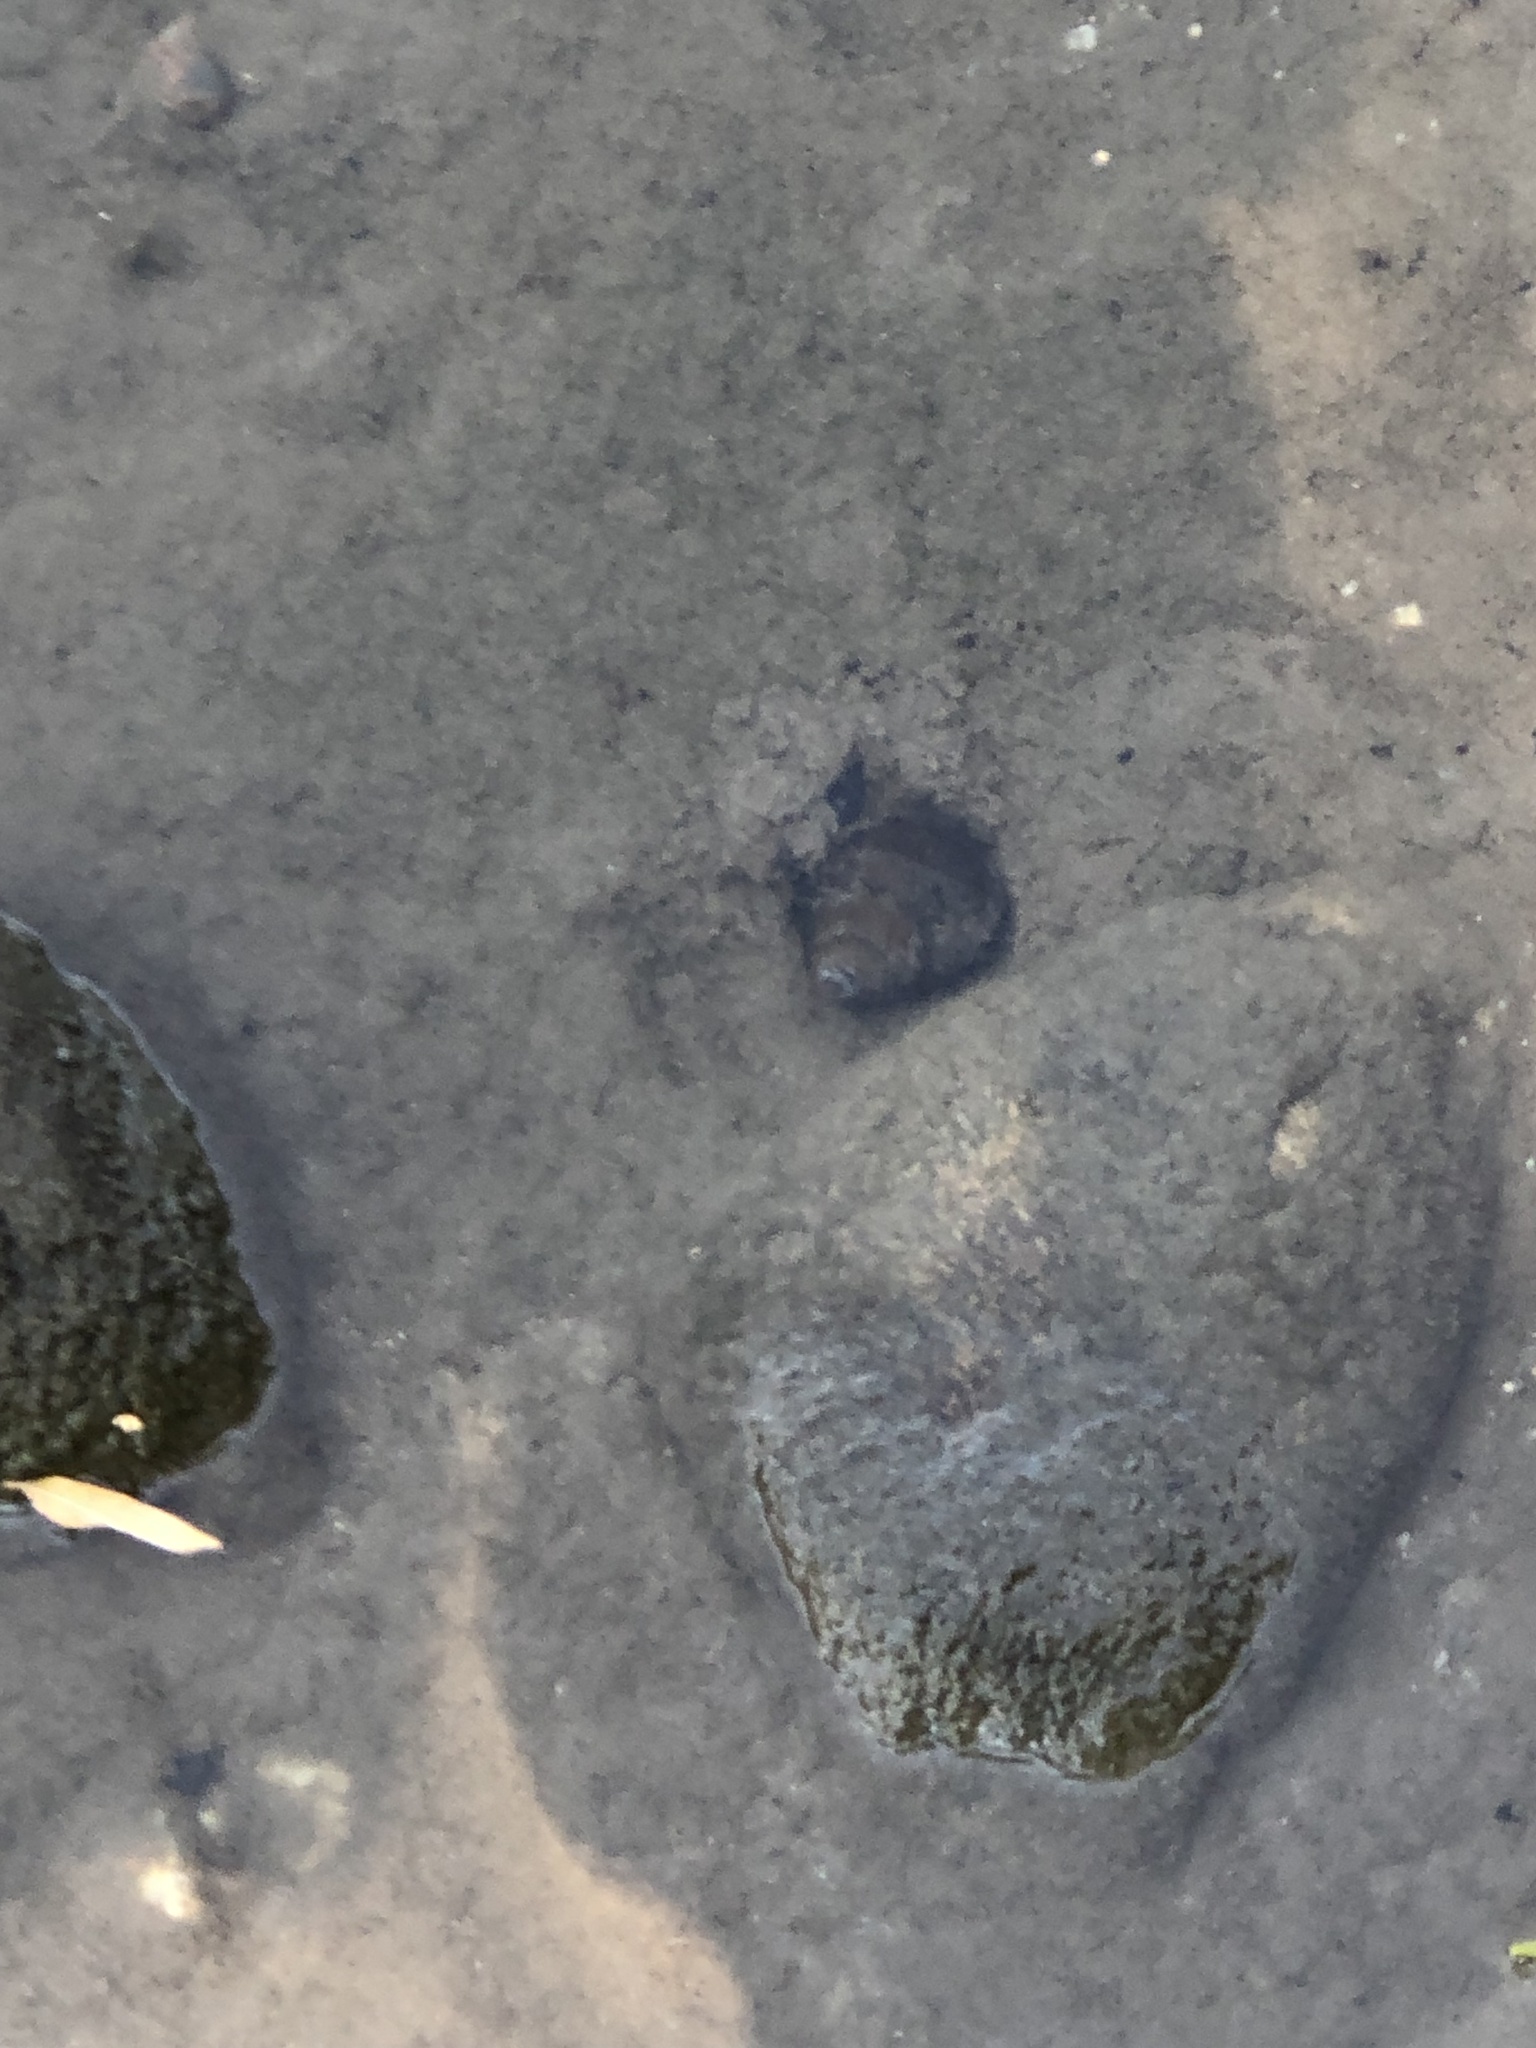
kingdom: Animalia
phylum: Mollusca
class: Gastropoda
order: Architaenioglossa
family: Viviparidae
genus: Cipangopaludina
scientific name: Cipangopaludina chinensis
